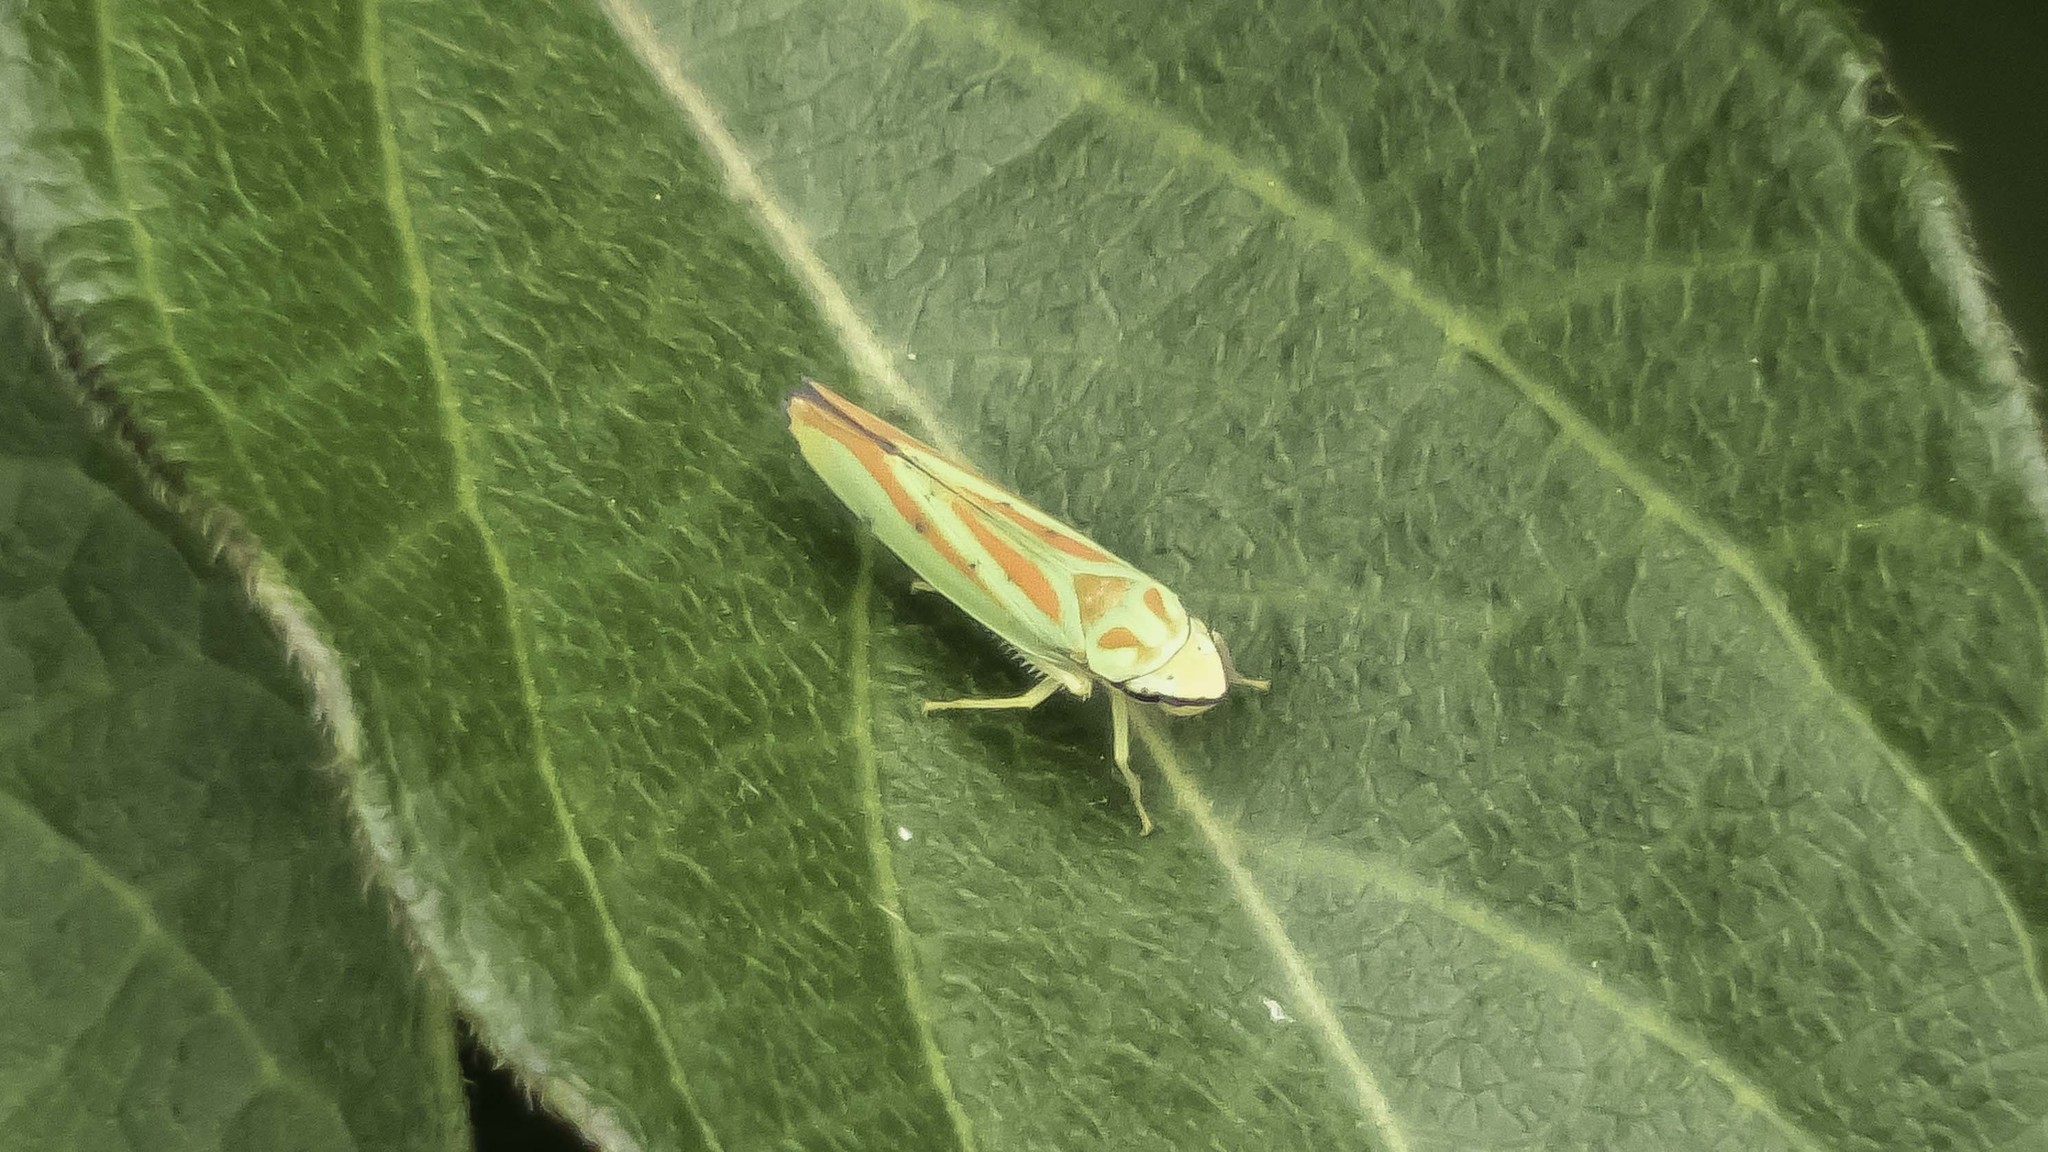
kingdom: Animalia
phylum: Arthropoda
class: Insecta
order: Hemiptera
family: Cicadellidae
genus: Graphocephala
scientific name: Graphocephala coccinea
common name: Candy-striped leafhopper
